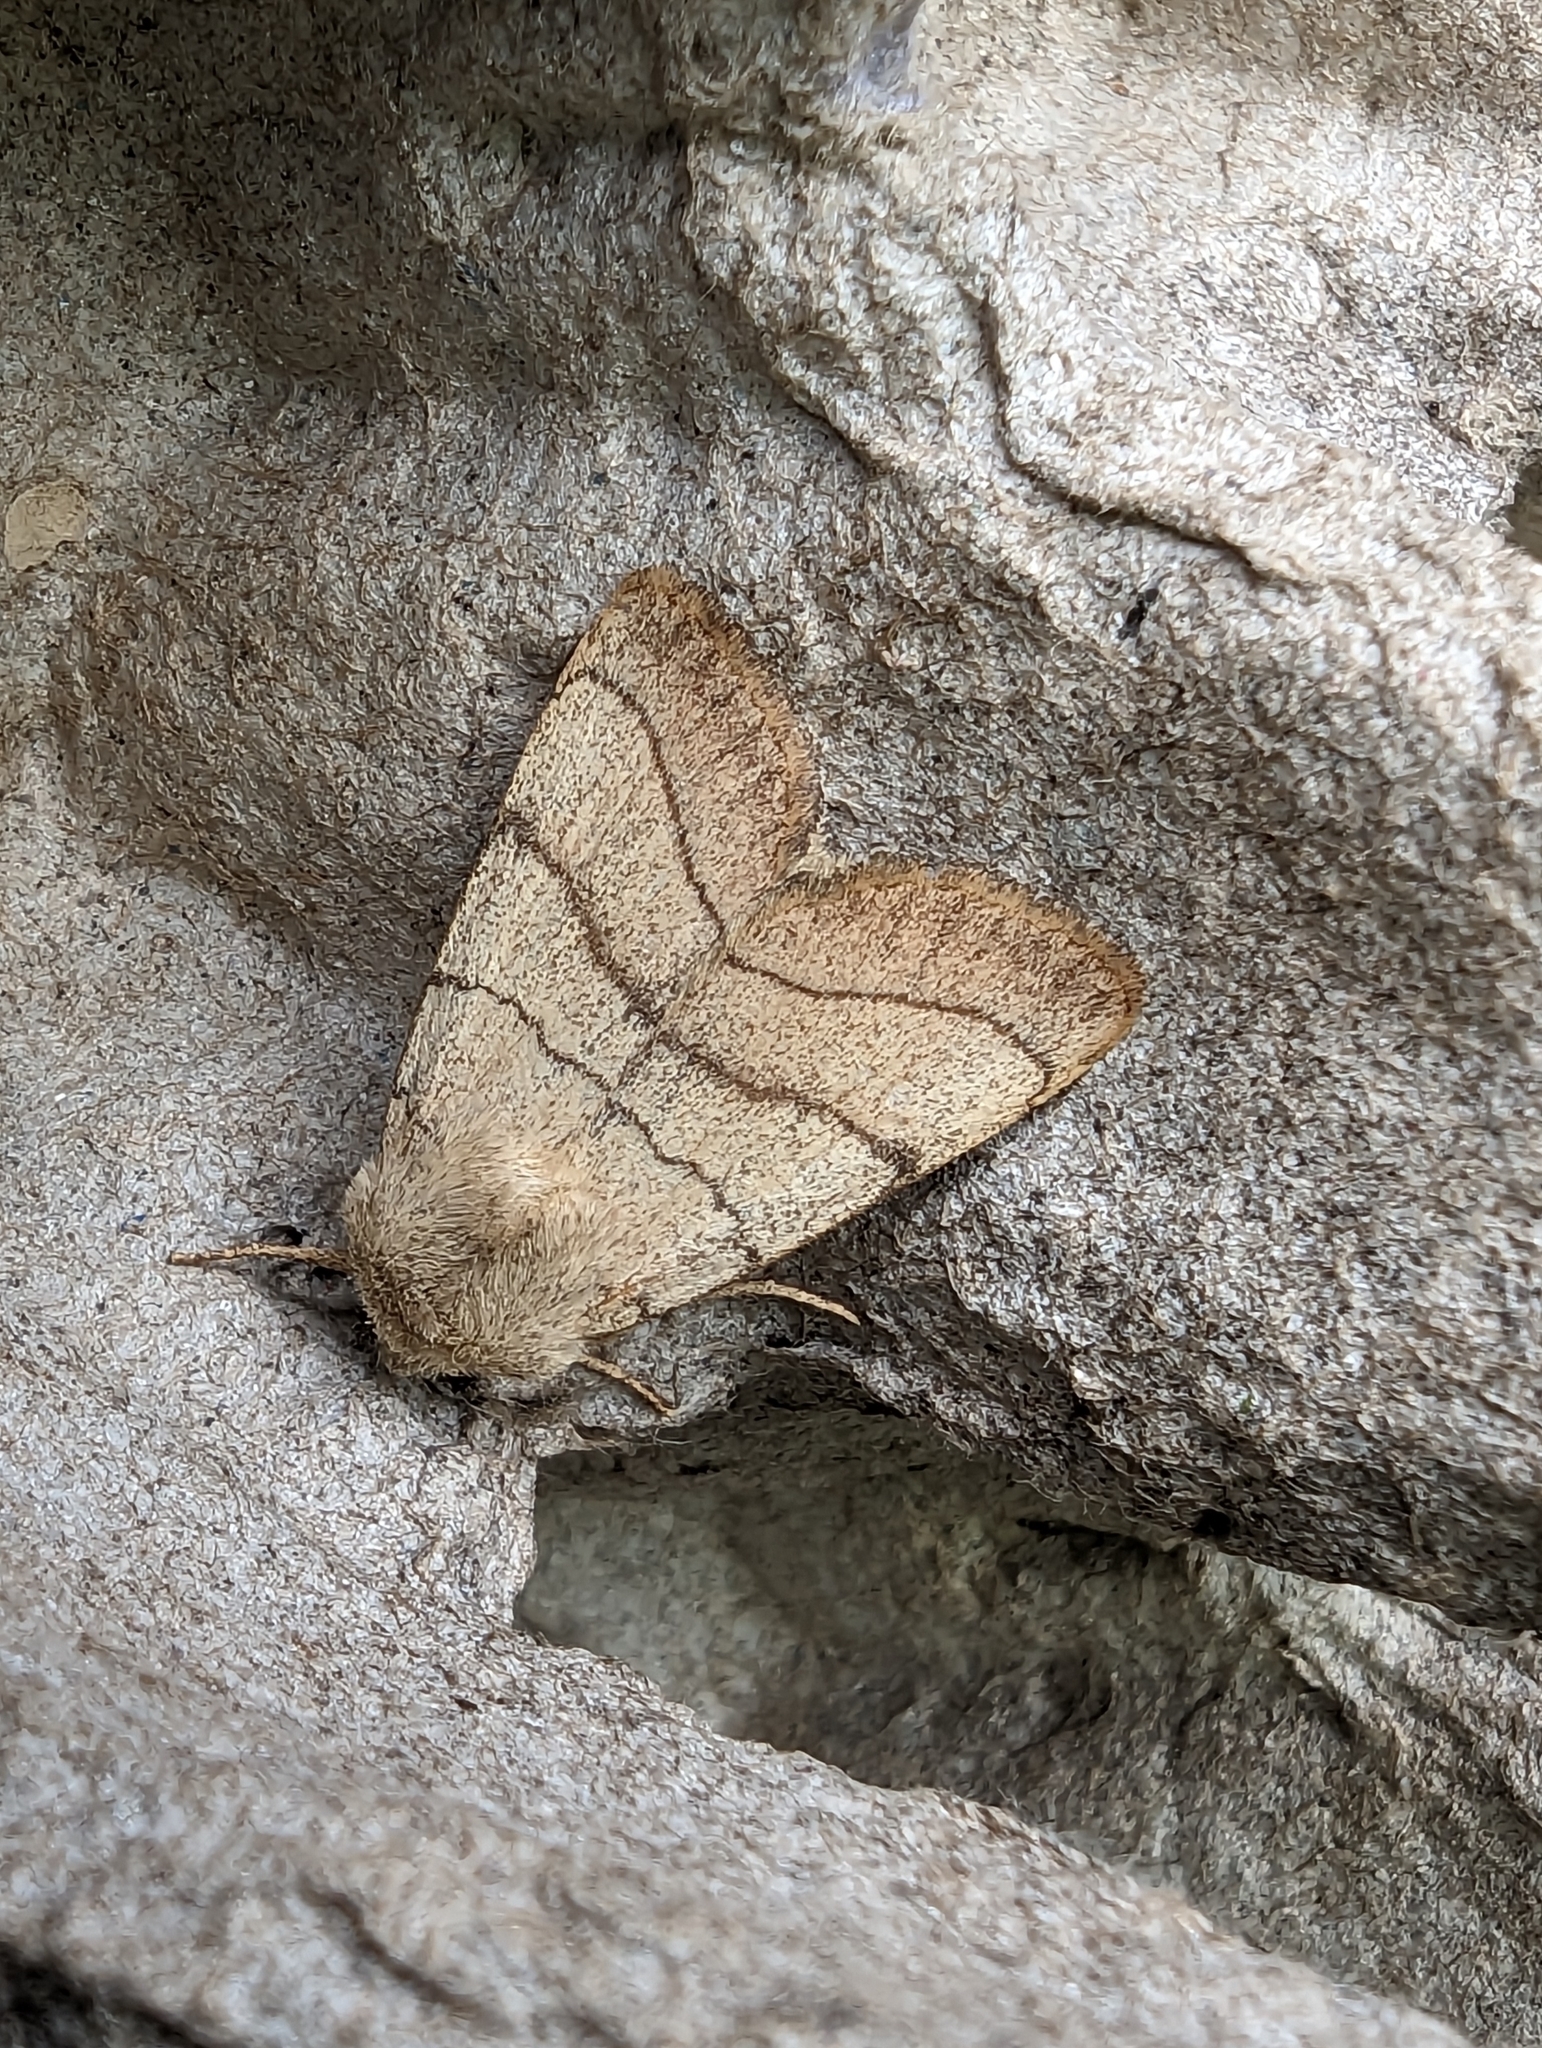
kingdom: Animalia
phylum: Arthropoda
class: Insecta
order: Lepidoptera
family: Noctuidae
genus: Charanyca
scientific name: Charanyca trigrammica
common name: Treble lines
